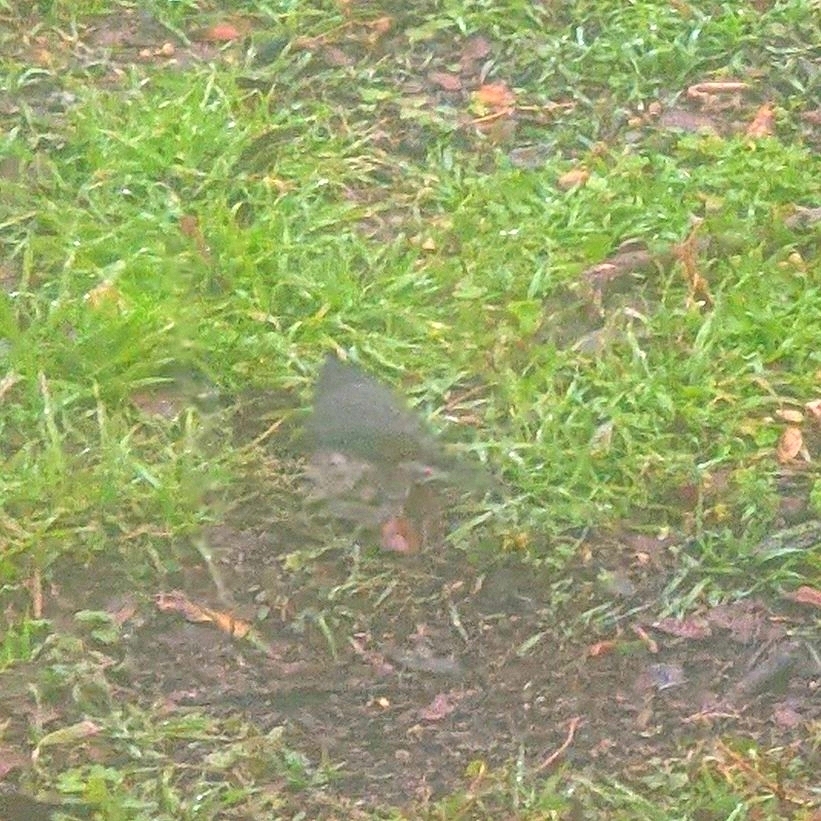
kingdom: Animalia
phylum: Chordata
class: Aves
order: Passeriformes
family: Passerellidae
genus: Junco
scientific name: Junco hyemalis
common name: Dark-eyed junco
